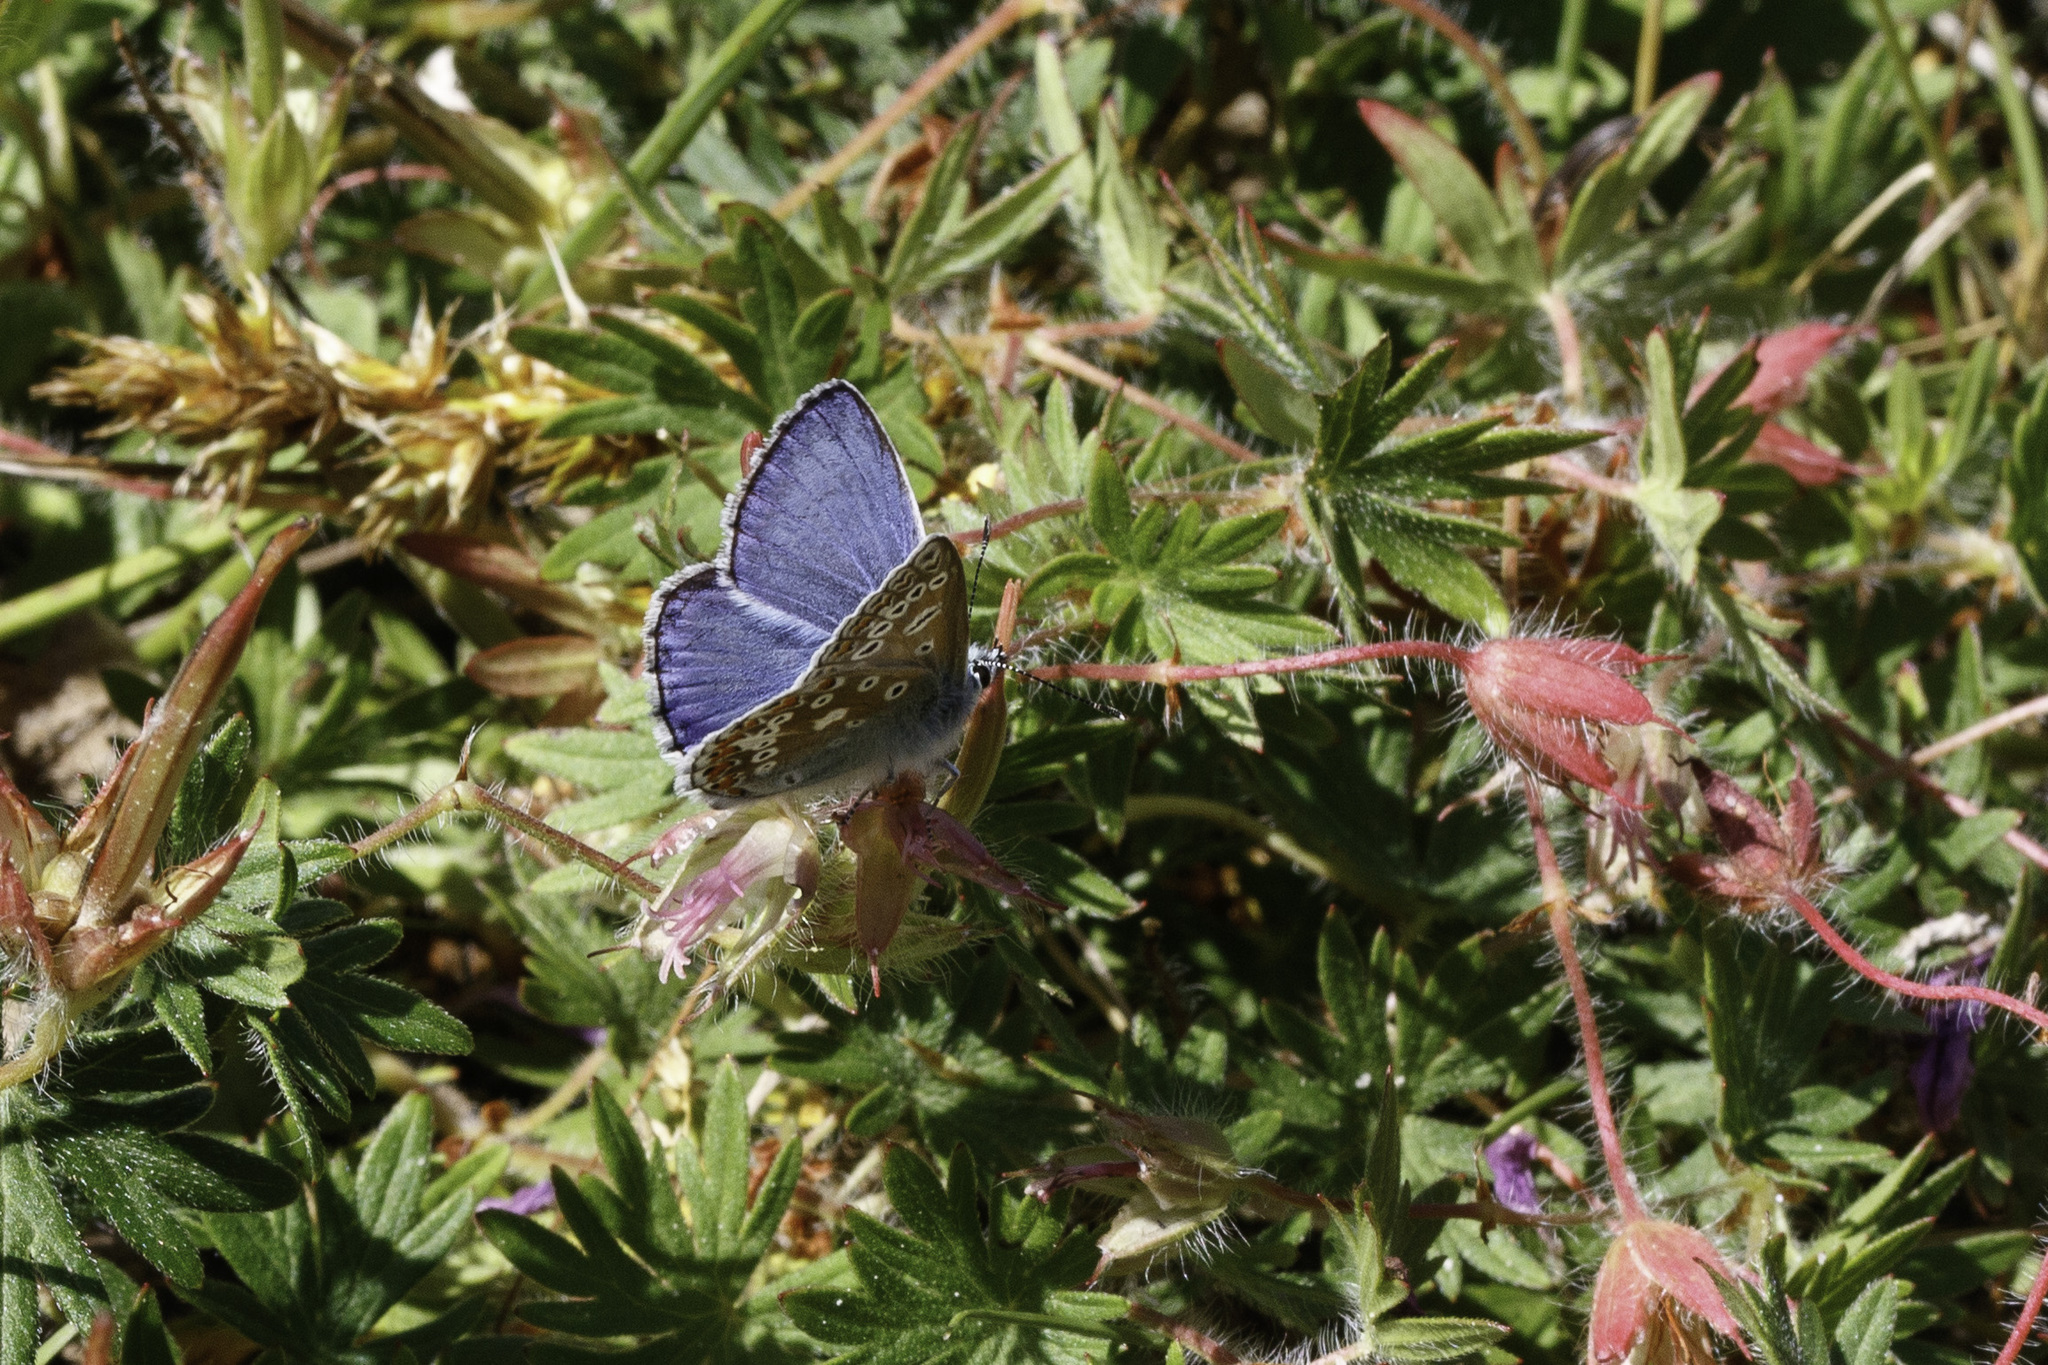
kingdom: Animalia
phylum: Arthropoda
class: Insecta
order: Lepidoptera
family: Lycaenidae
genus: Polyommatus
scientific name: Polyommatus icarus
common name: Common blue
